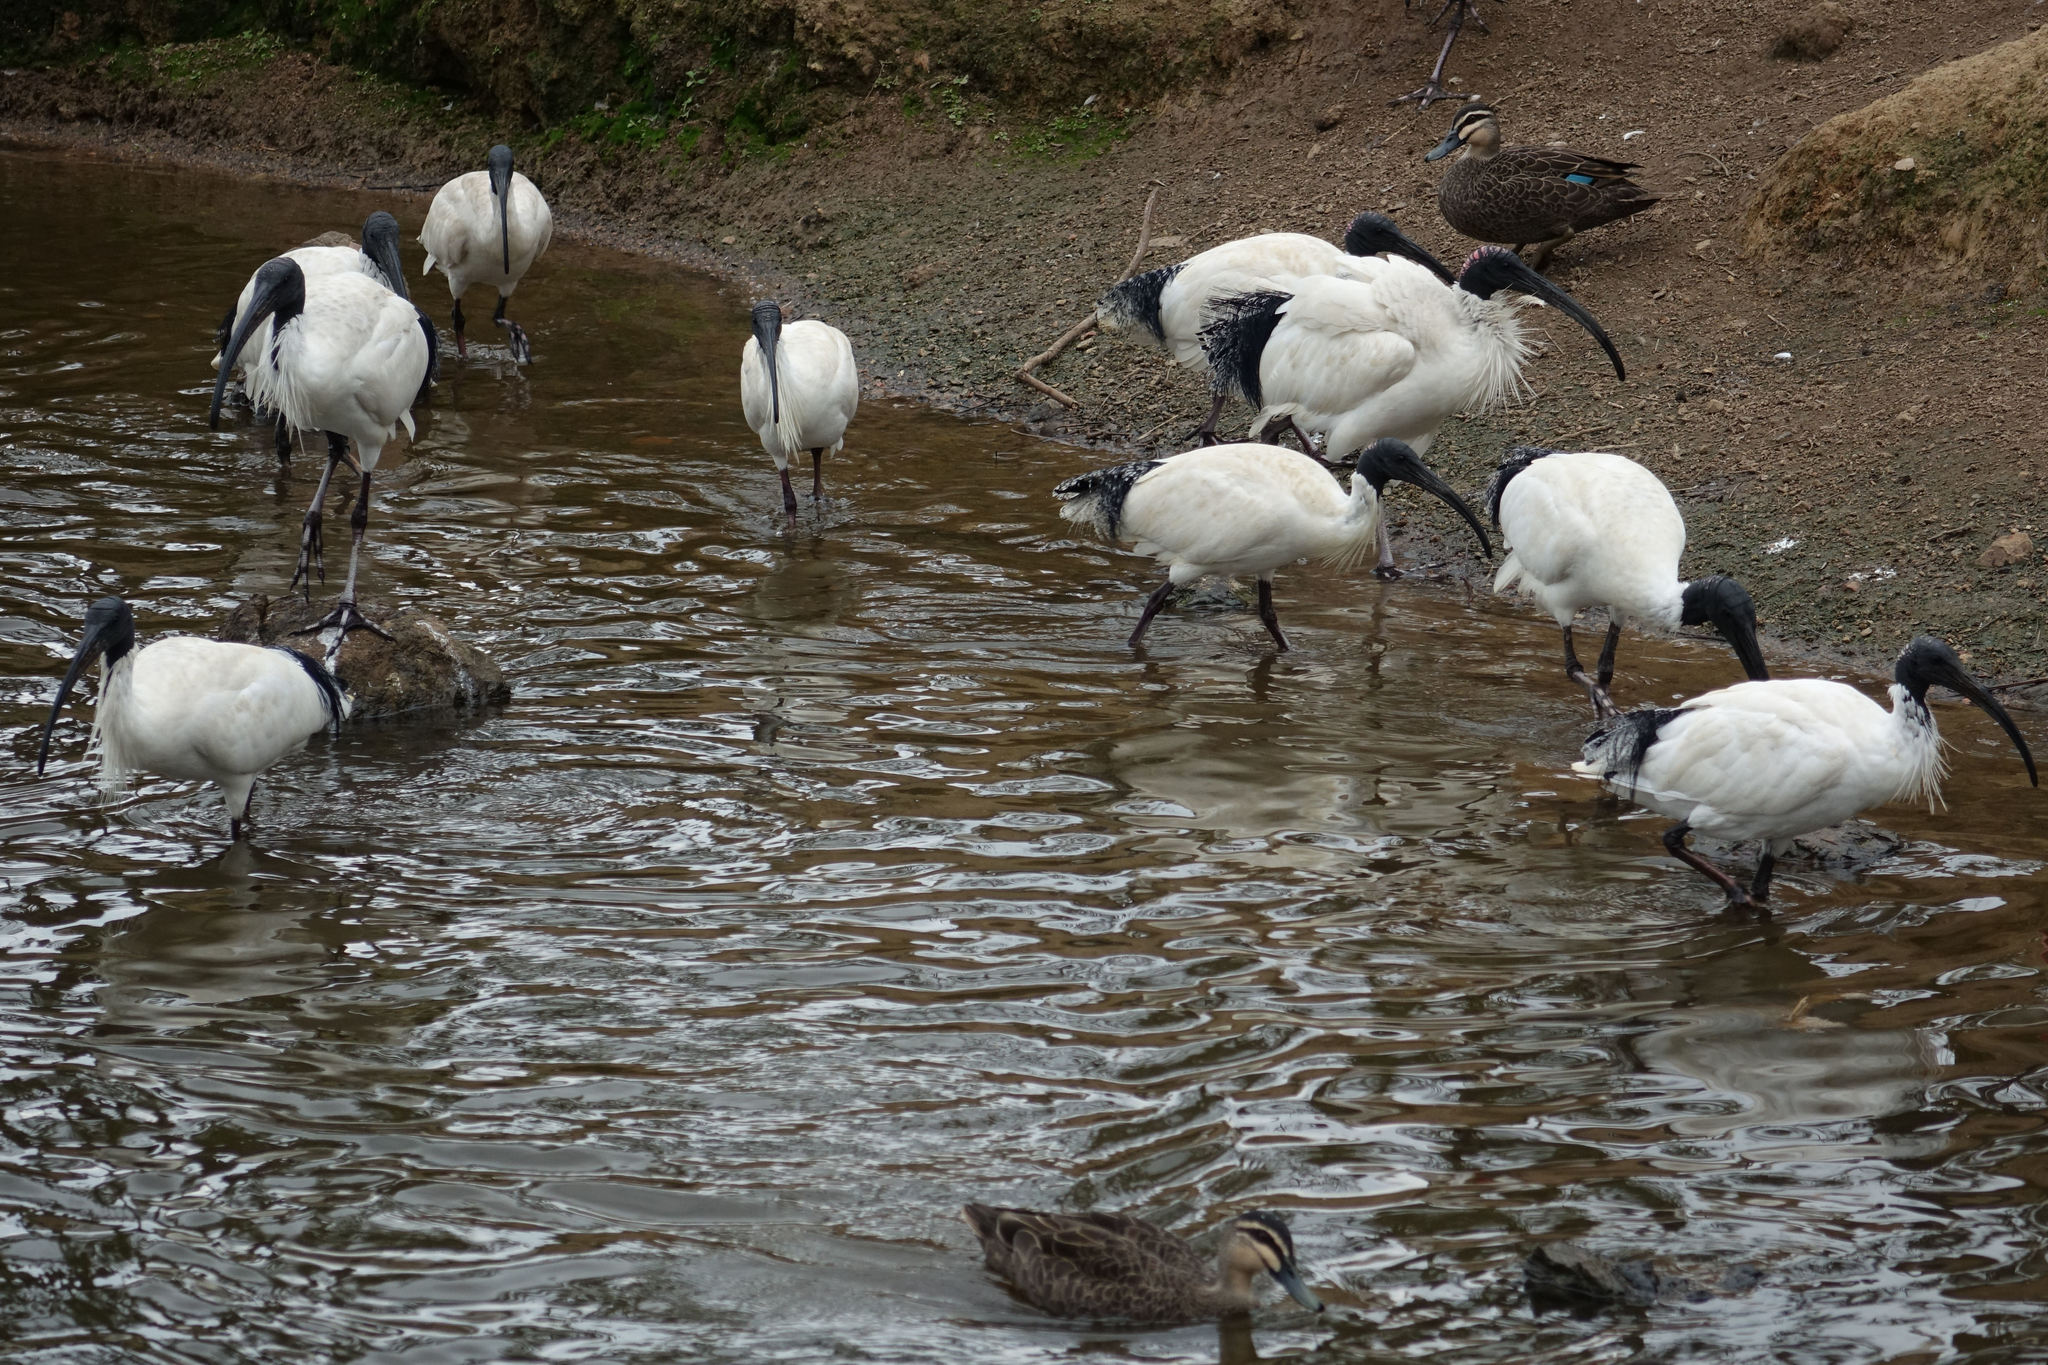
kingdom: Animalia
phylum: Chordata
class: Aves
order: Pelecaniformes
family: Threskiornithidae
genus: Threskiornis
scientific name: Threskiornis molucca
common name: Australian white ibis
